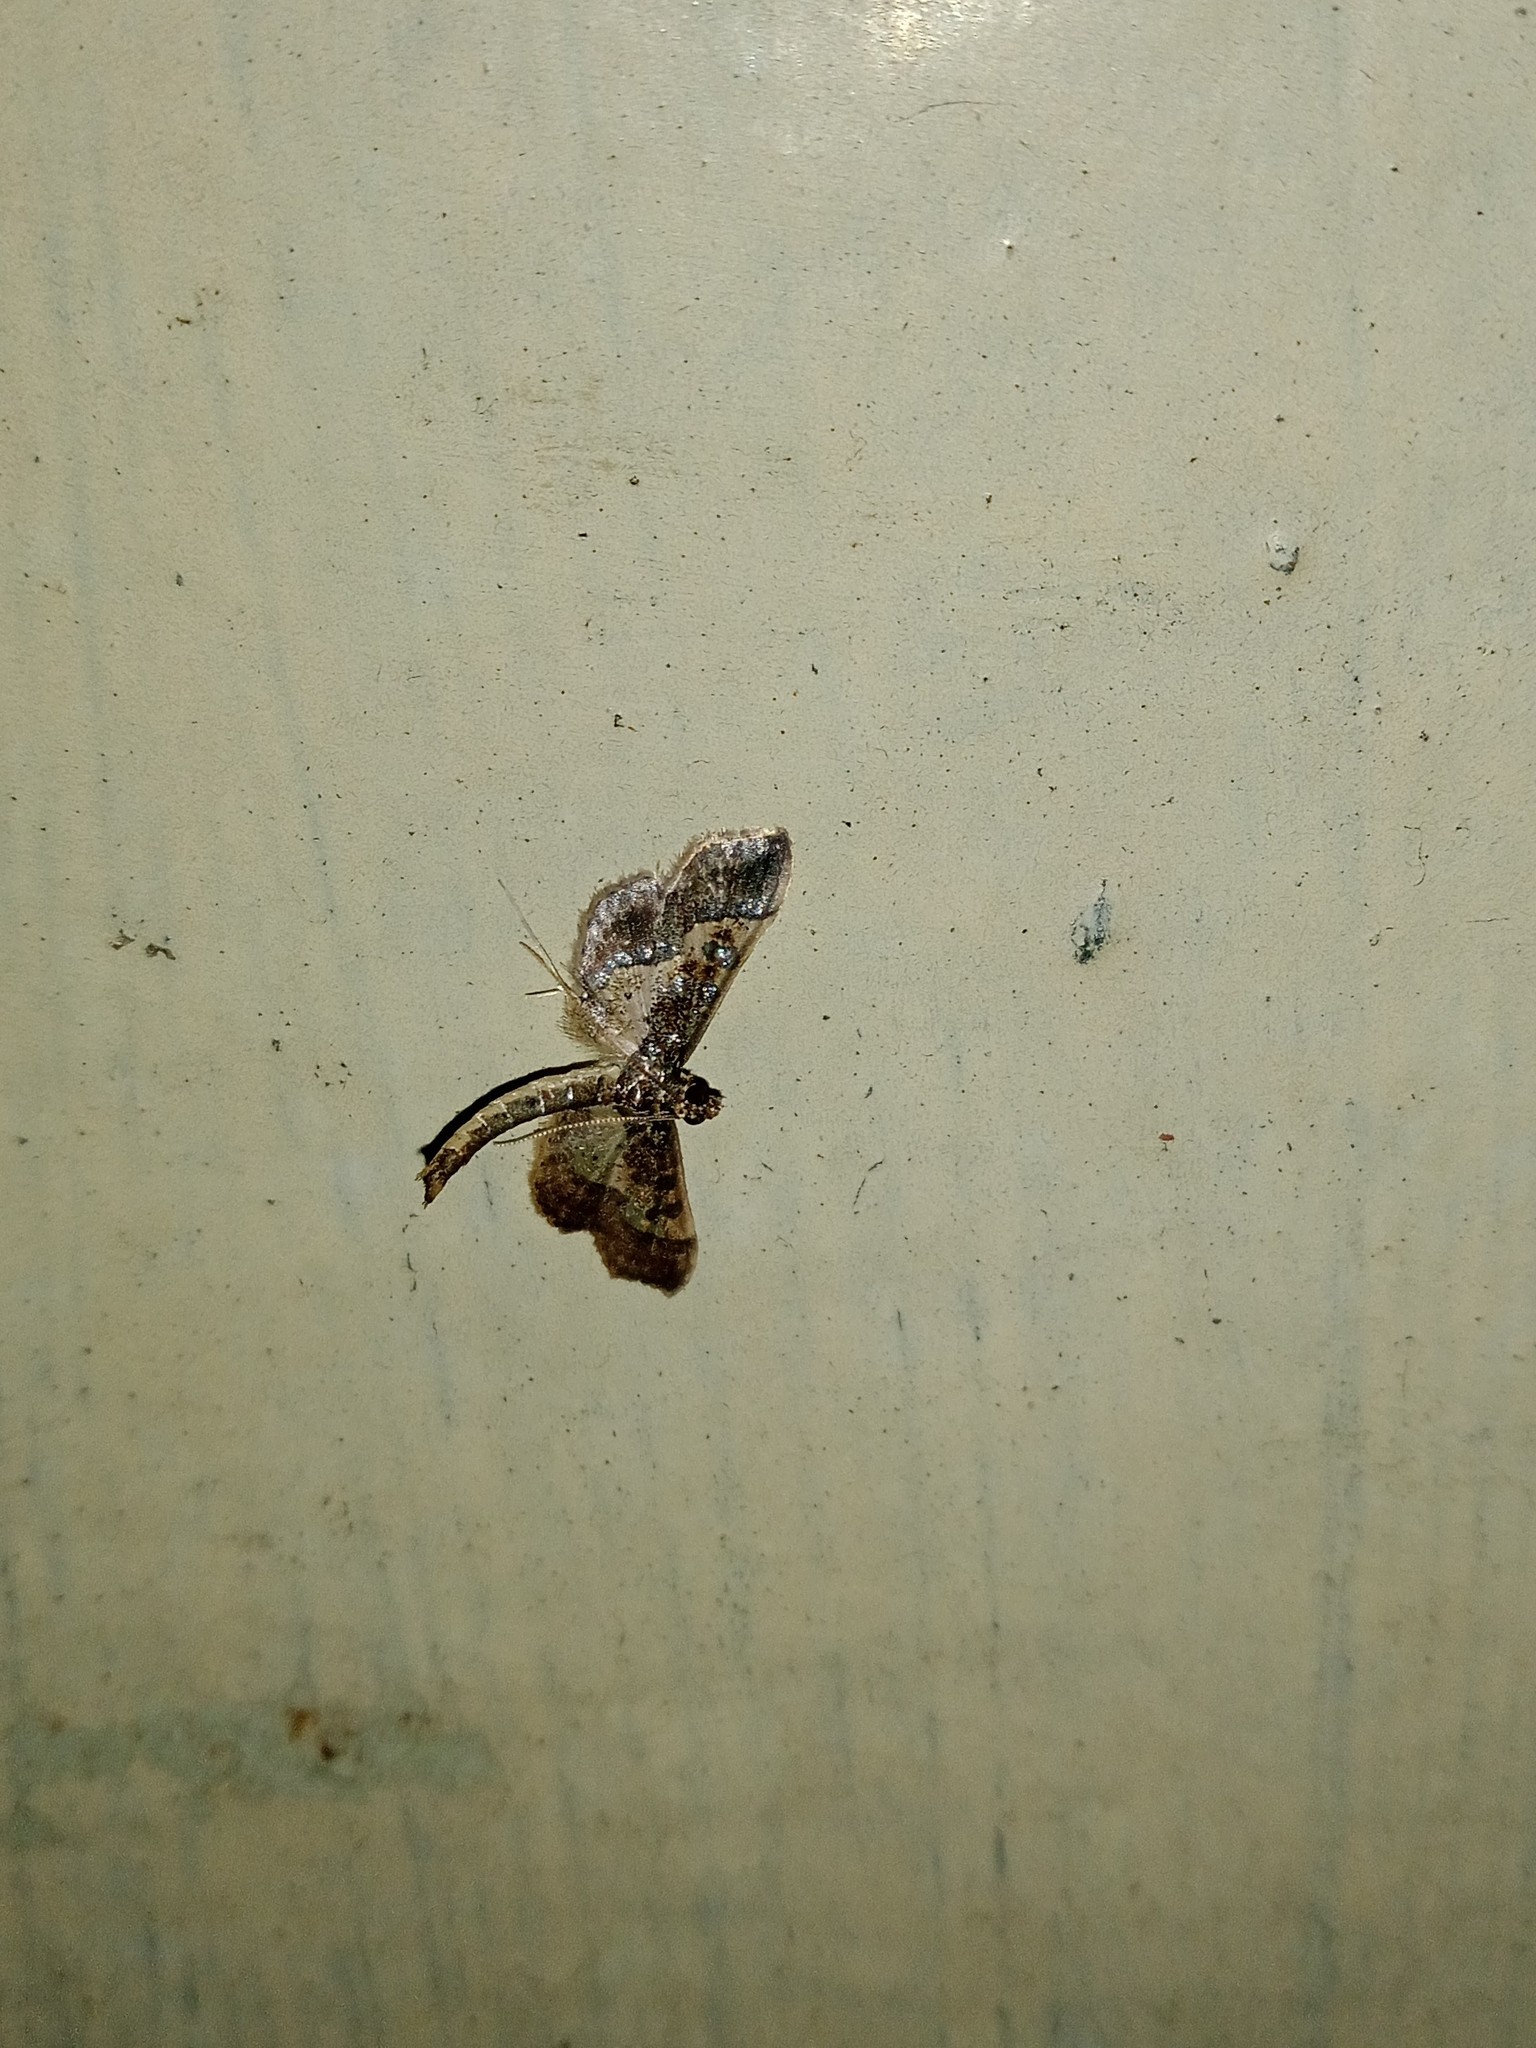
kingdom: Animalia
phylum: Arthropoda
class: Insecta
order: Lepidoptera
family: Crambidae
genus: Hydriris
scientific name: Hydriris ornatalis
